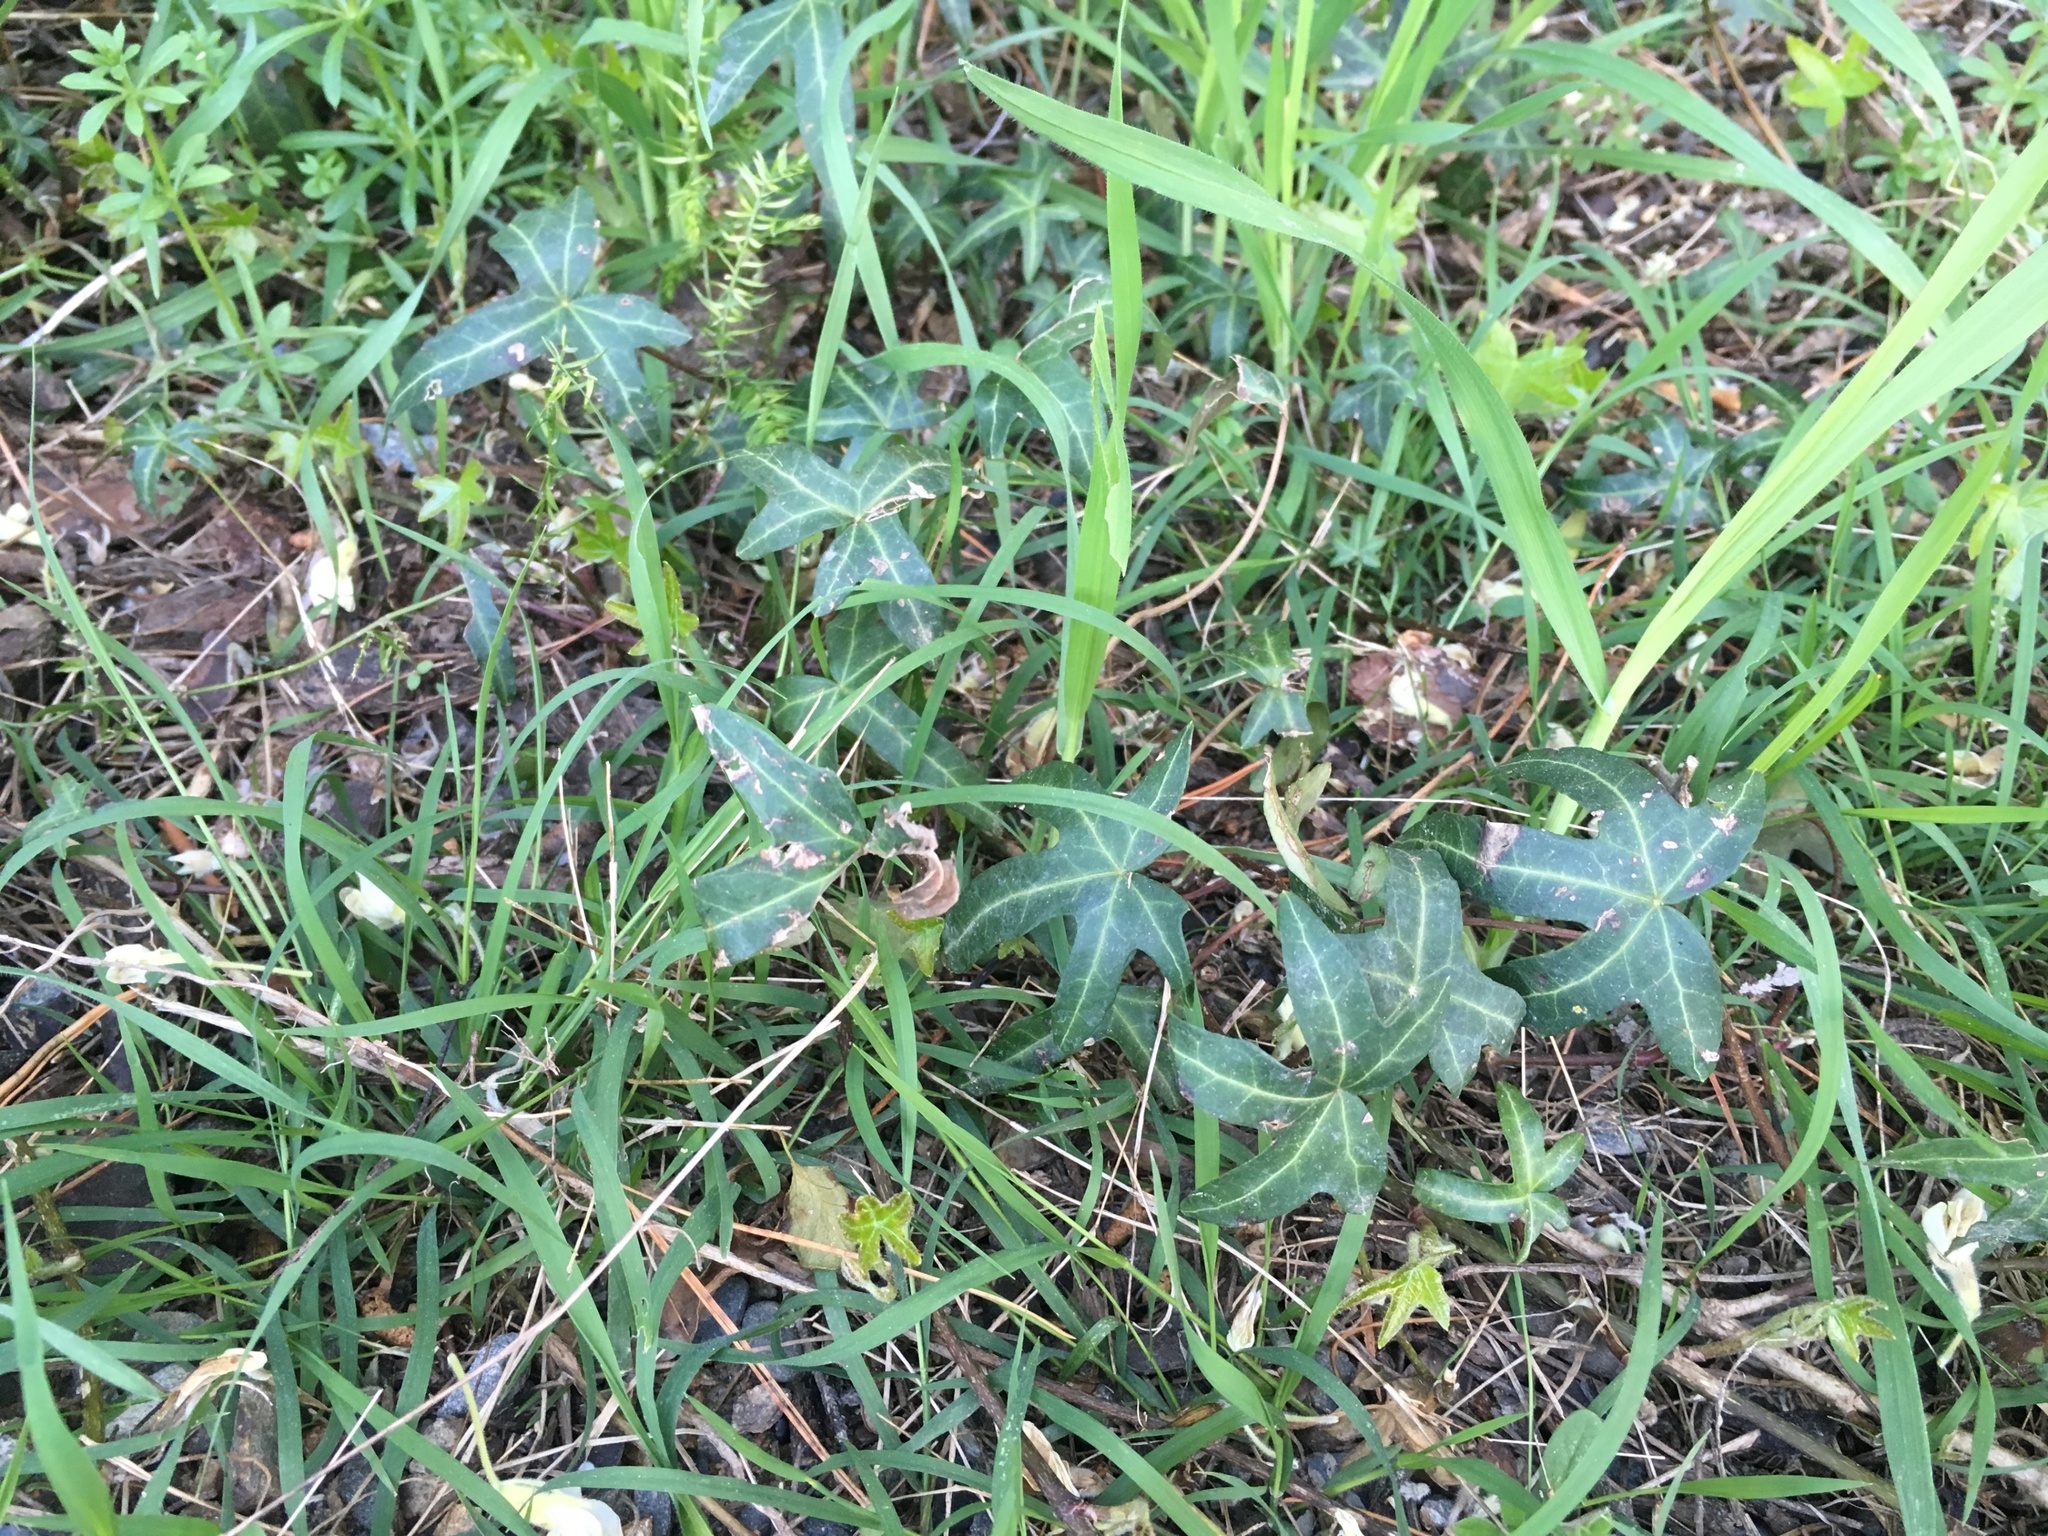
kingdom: Plantae
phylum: Tracheophyta
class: Magnoliopsida
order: Apiales
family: Araliaceae
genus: Hedera
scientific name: Hedera helix
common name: Ivy
